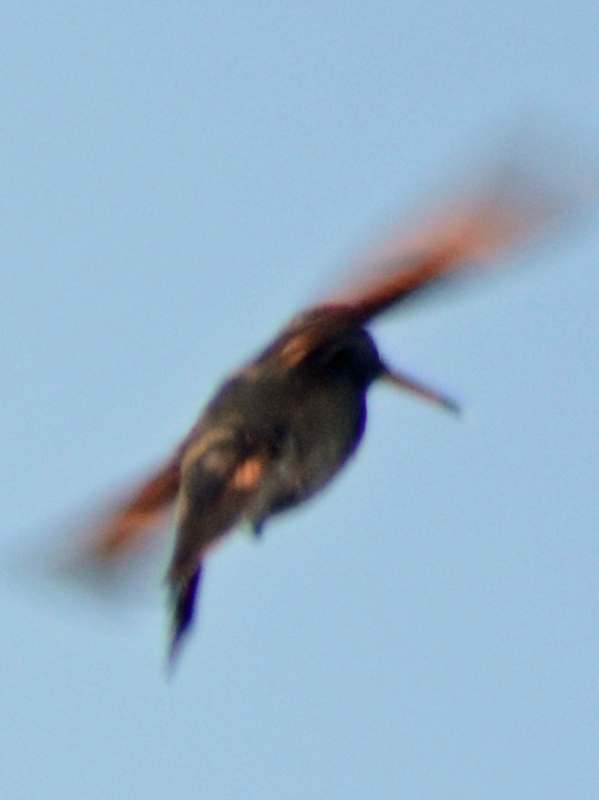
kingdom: Animalia
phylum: Chordata
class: Aves
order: Apodiformes
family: Trochilidae
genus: Saucerottia
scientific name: Saucerottia beryllina
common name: Berylline hummingbird
